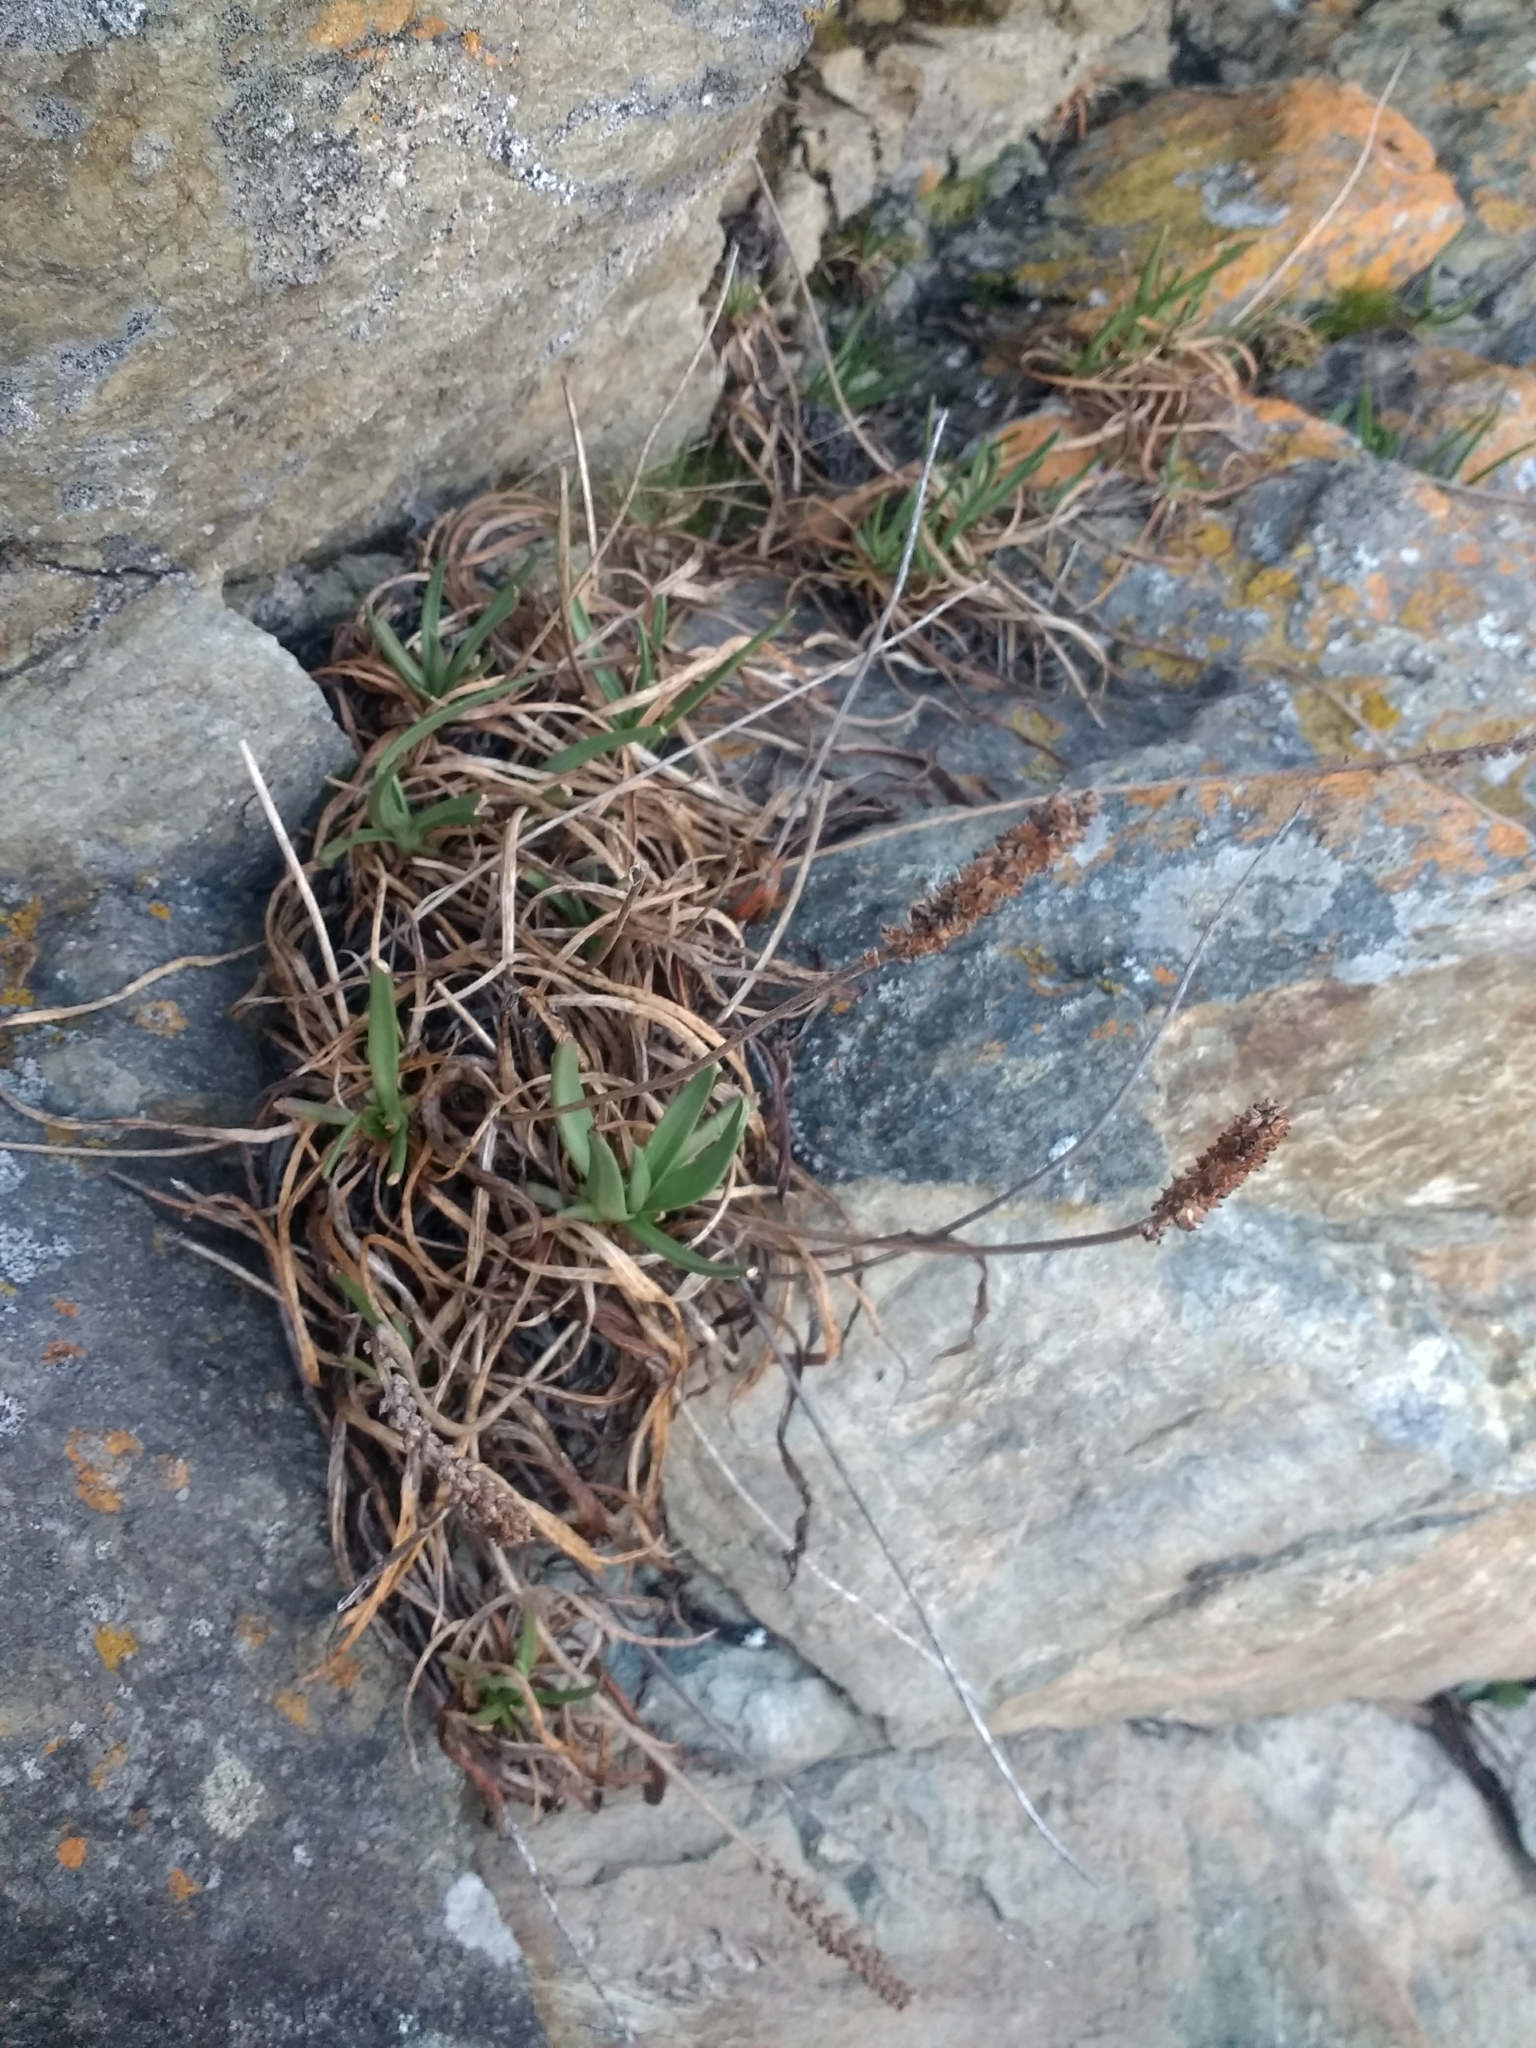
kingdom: Plantae
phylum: Tracheophyta
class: Magnoliopsida
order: Lamiales
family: Plantaginaceae
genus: Plantago
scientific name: Plantago maritima
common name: Sea plantain
